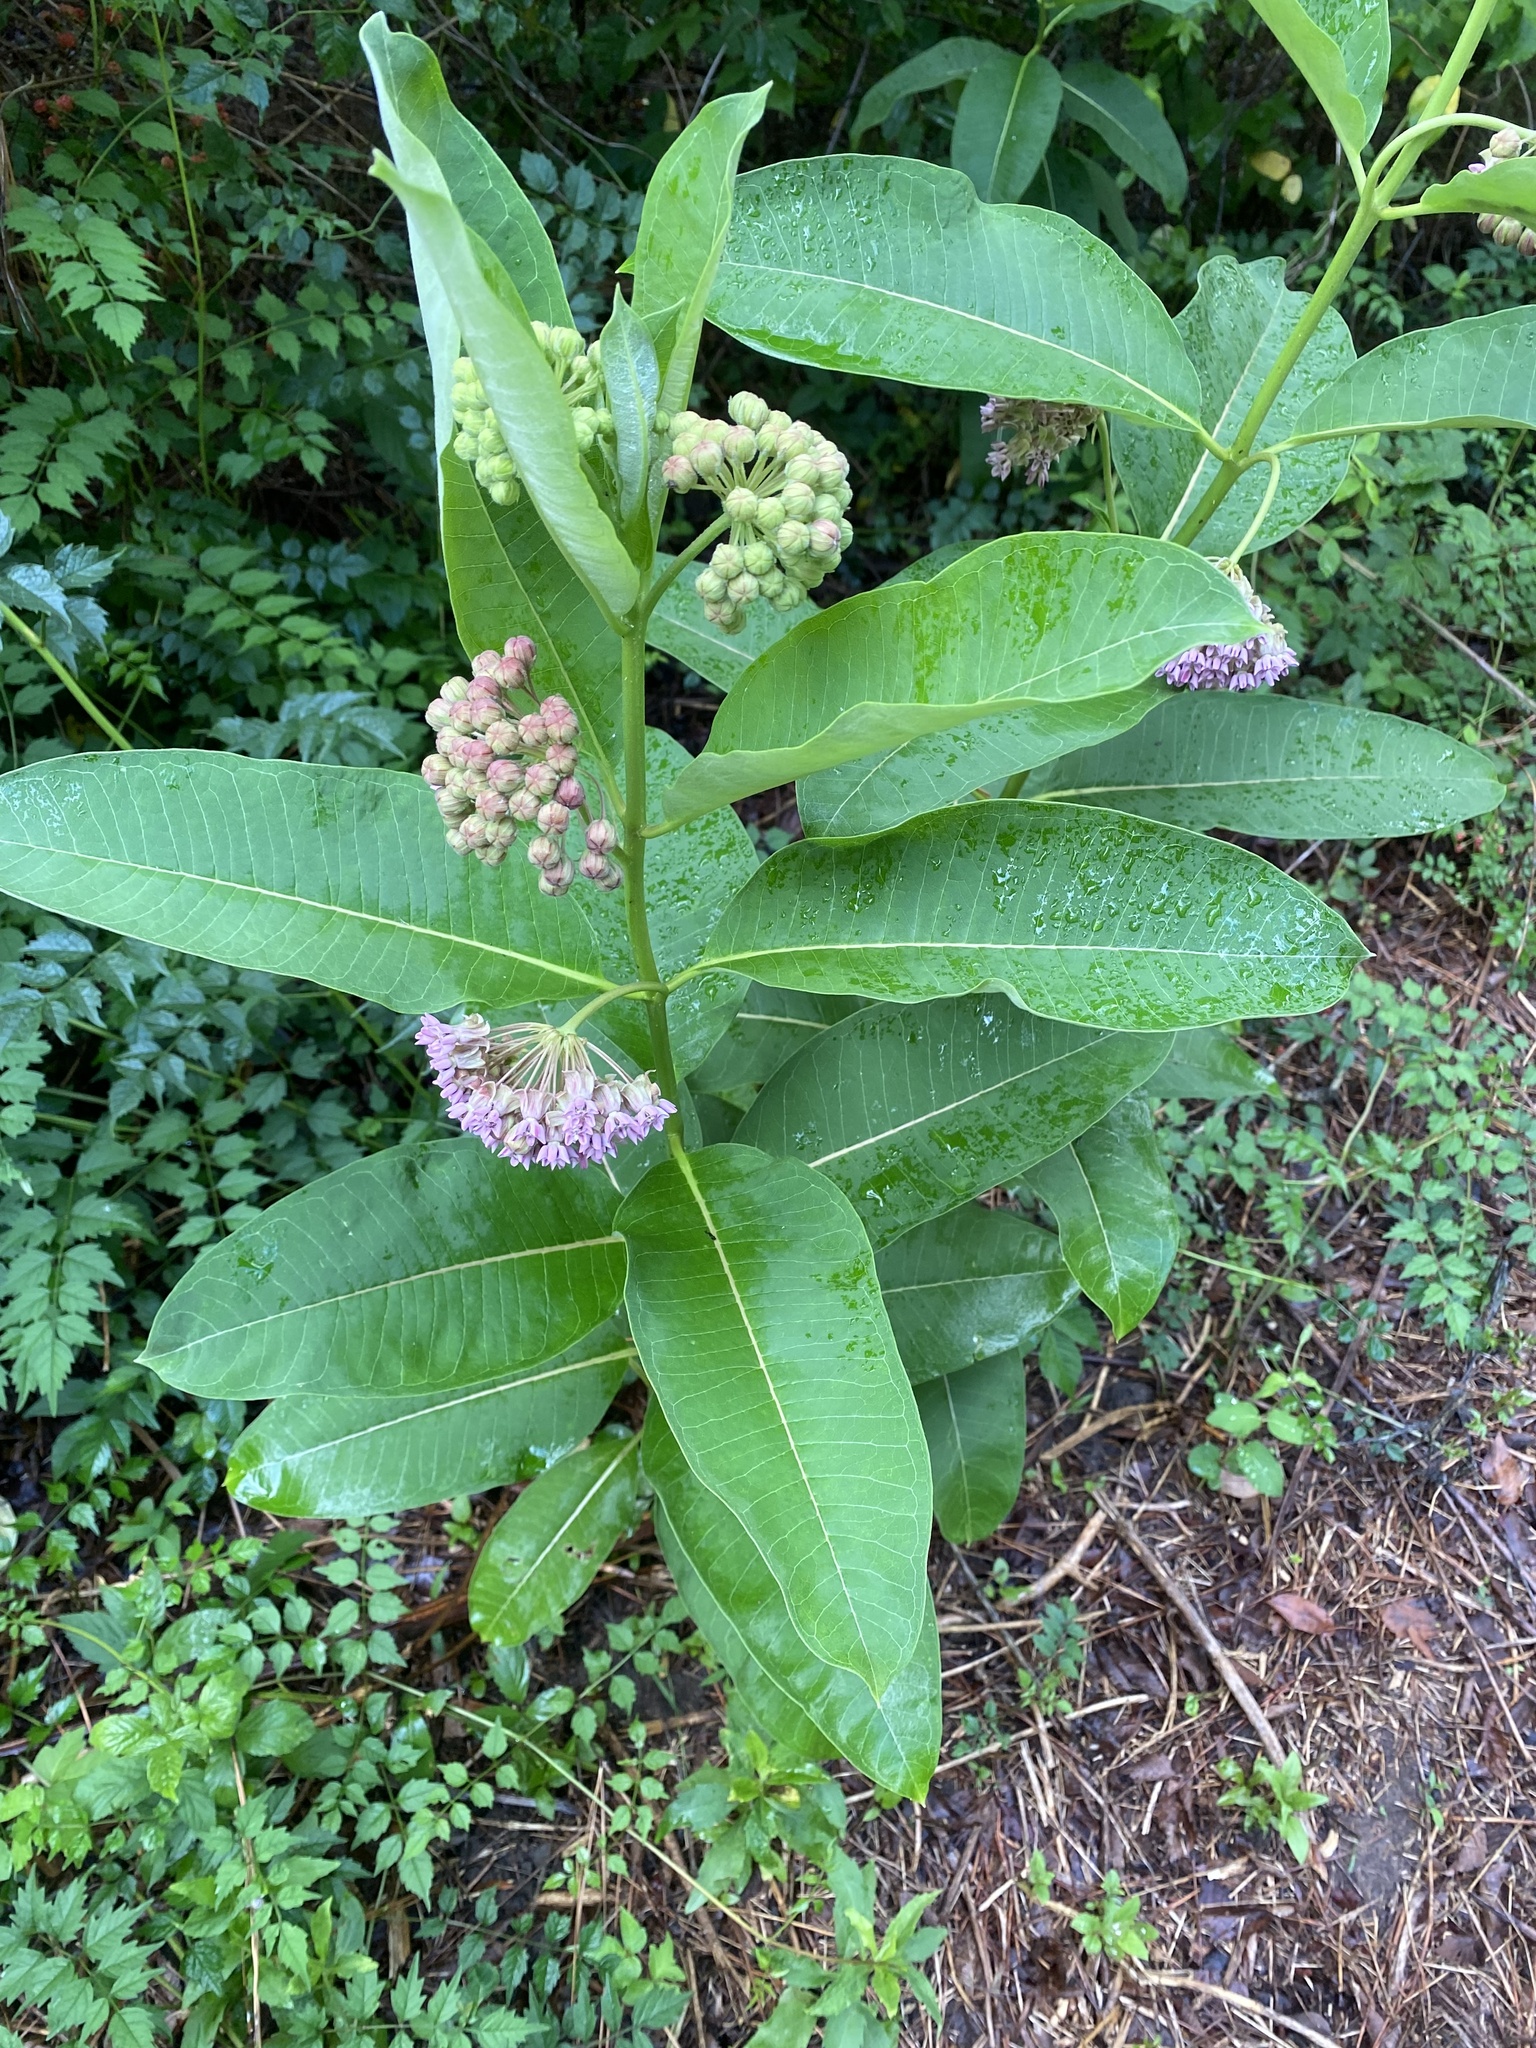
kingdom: Plantae
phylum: Tracheophyta
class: Magnoliopsida
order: Gentianales
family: Apocynaceae
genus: Asclepias
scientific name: Asclepias syriaca
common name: Common milkweed
